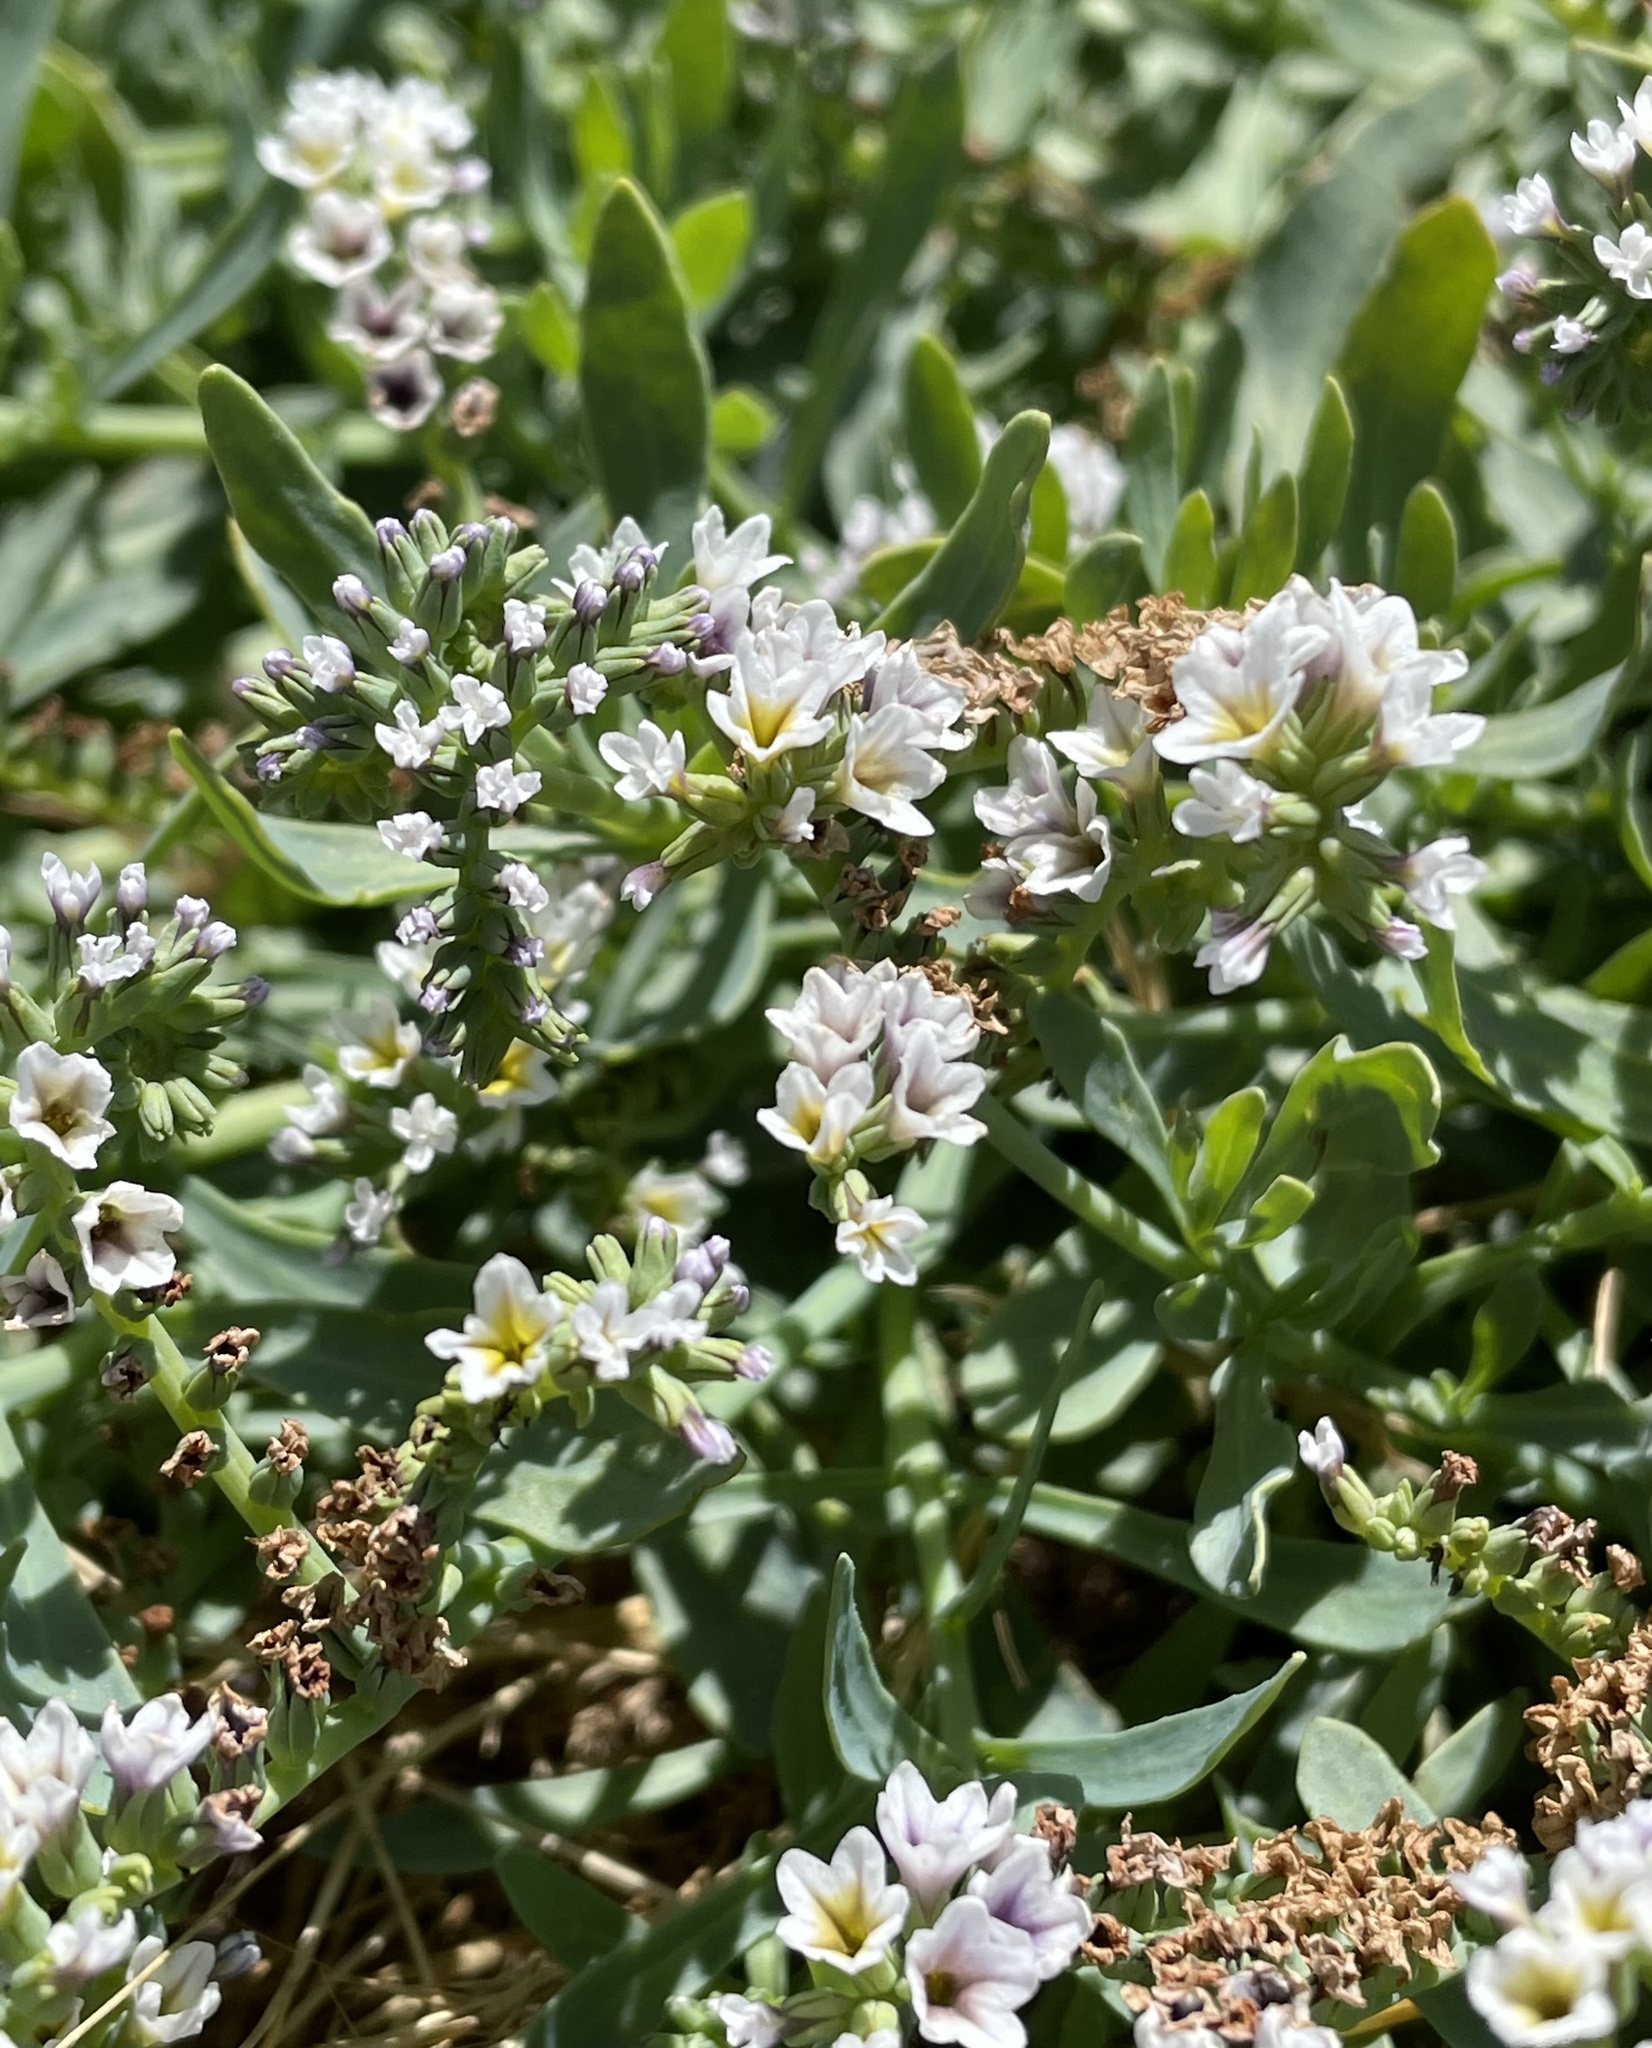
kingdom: Plantae
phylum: Tracheophyta
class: Magnoliopsida
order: Boraginales
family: Heliotropiaceae
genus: Heliotropium
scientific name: Heliotropium curassavicum
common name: Seaside heliotrope
